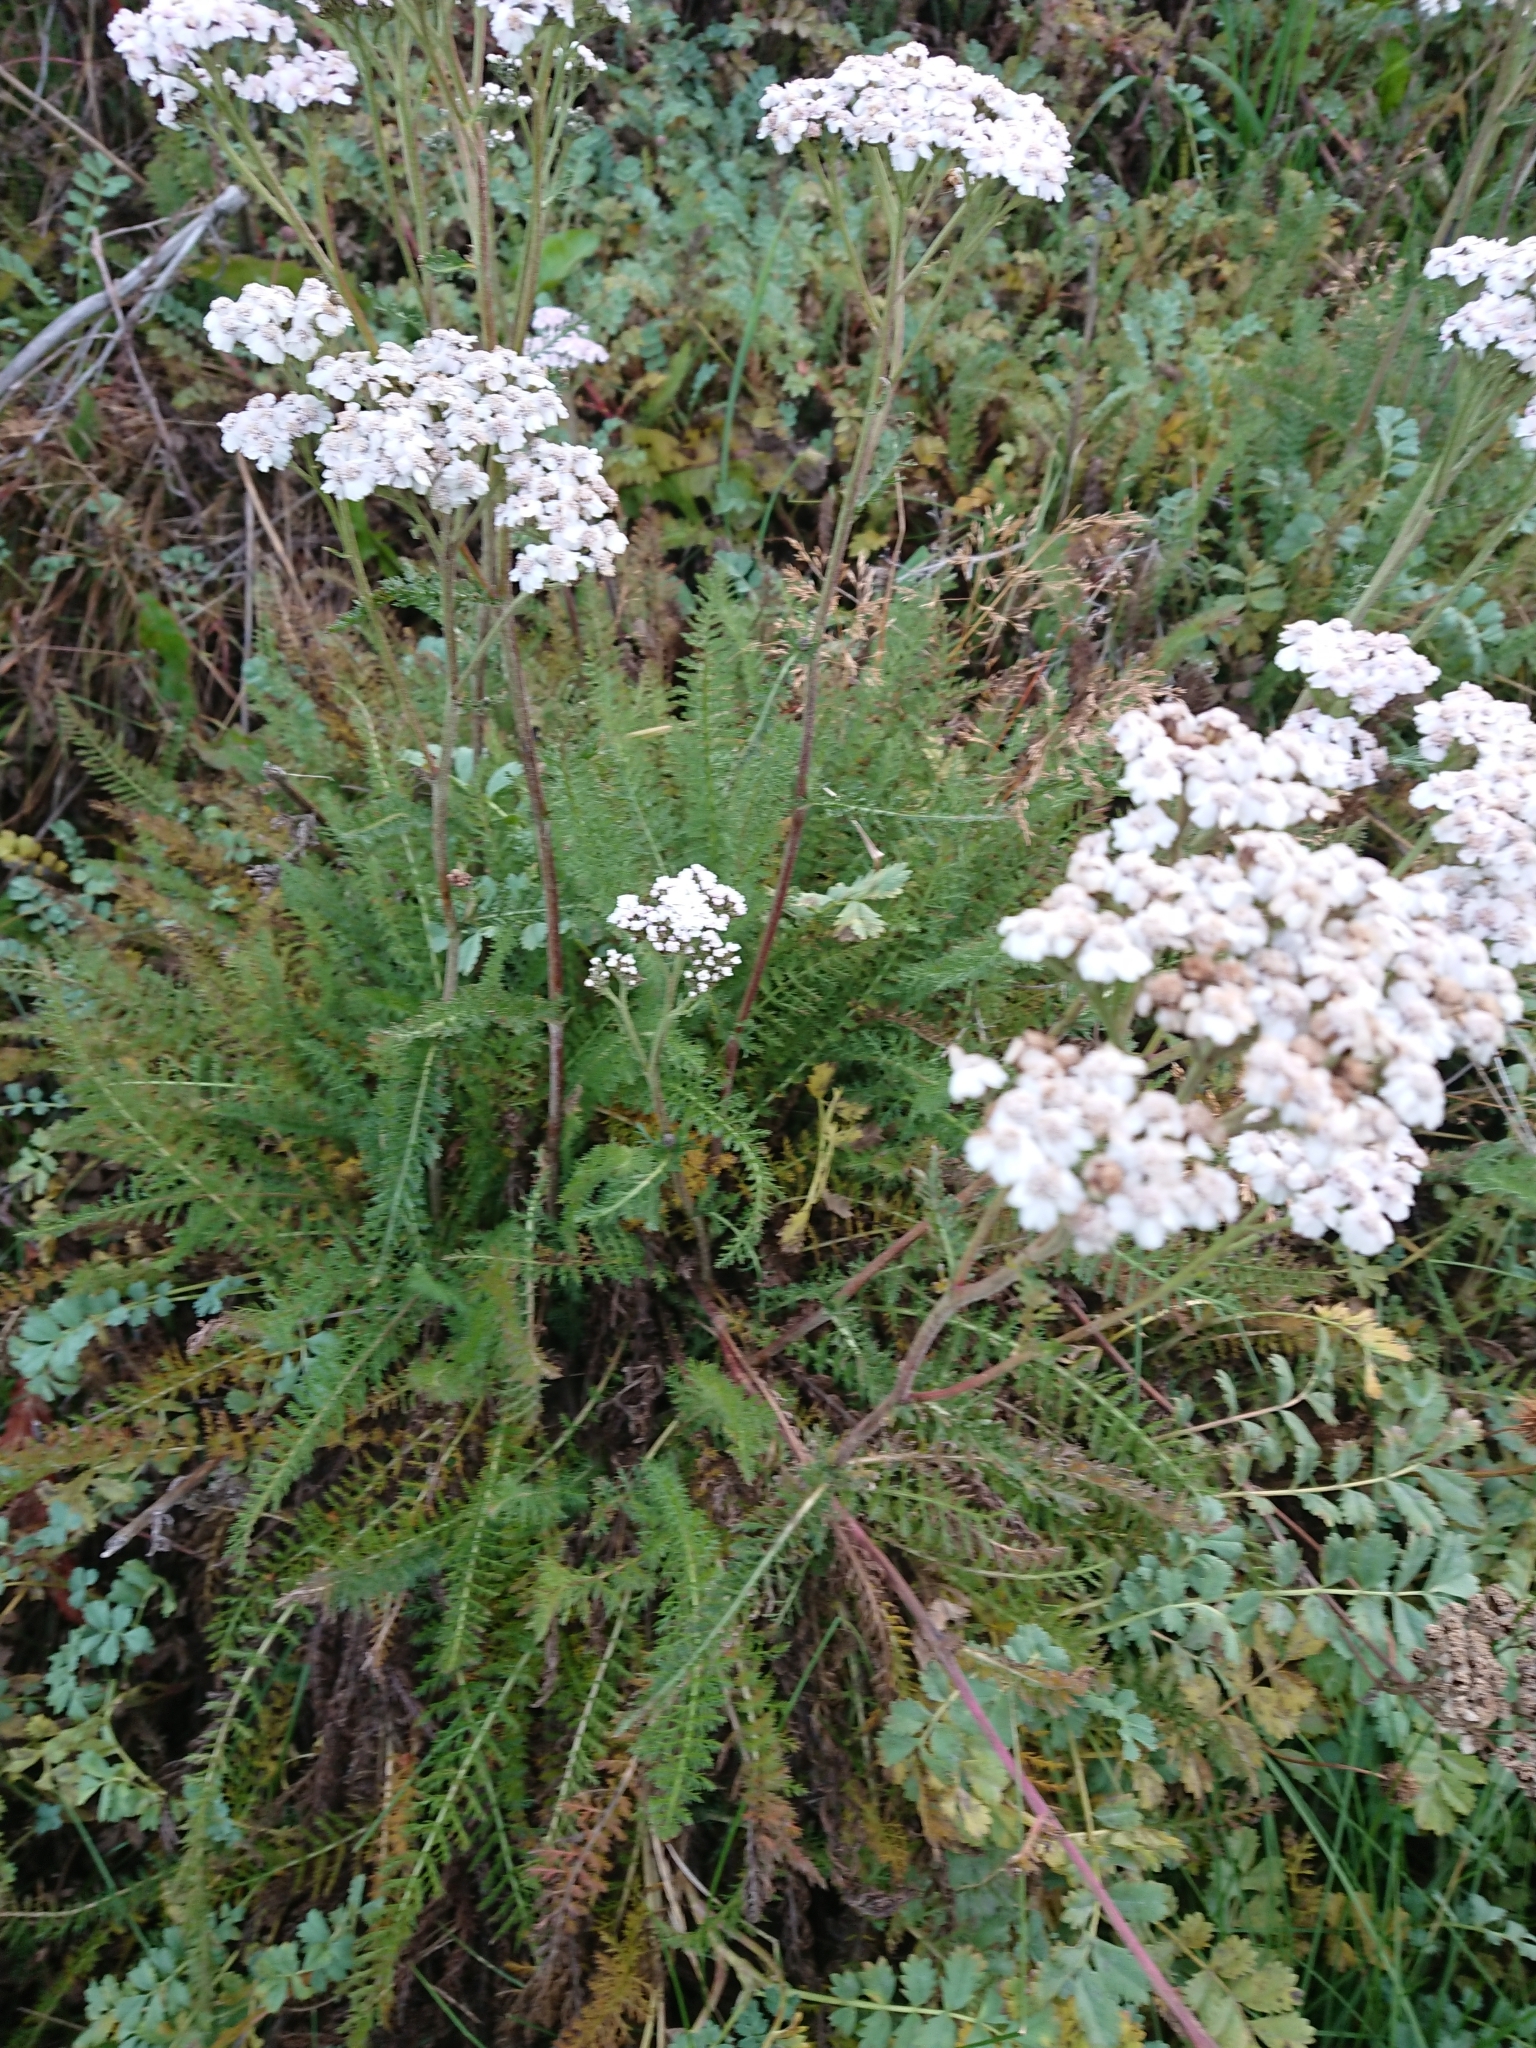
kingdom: Plantae
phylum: Tracheophyta
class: Magnoliopsida
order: Asterales
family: Asteraceae
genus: Achillea
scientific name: Achillea millefolium
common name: Yarrow
